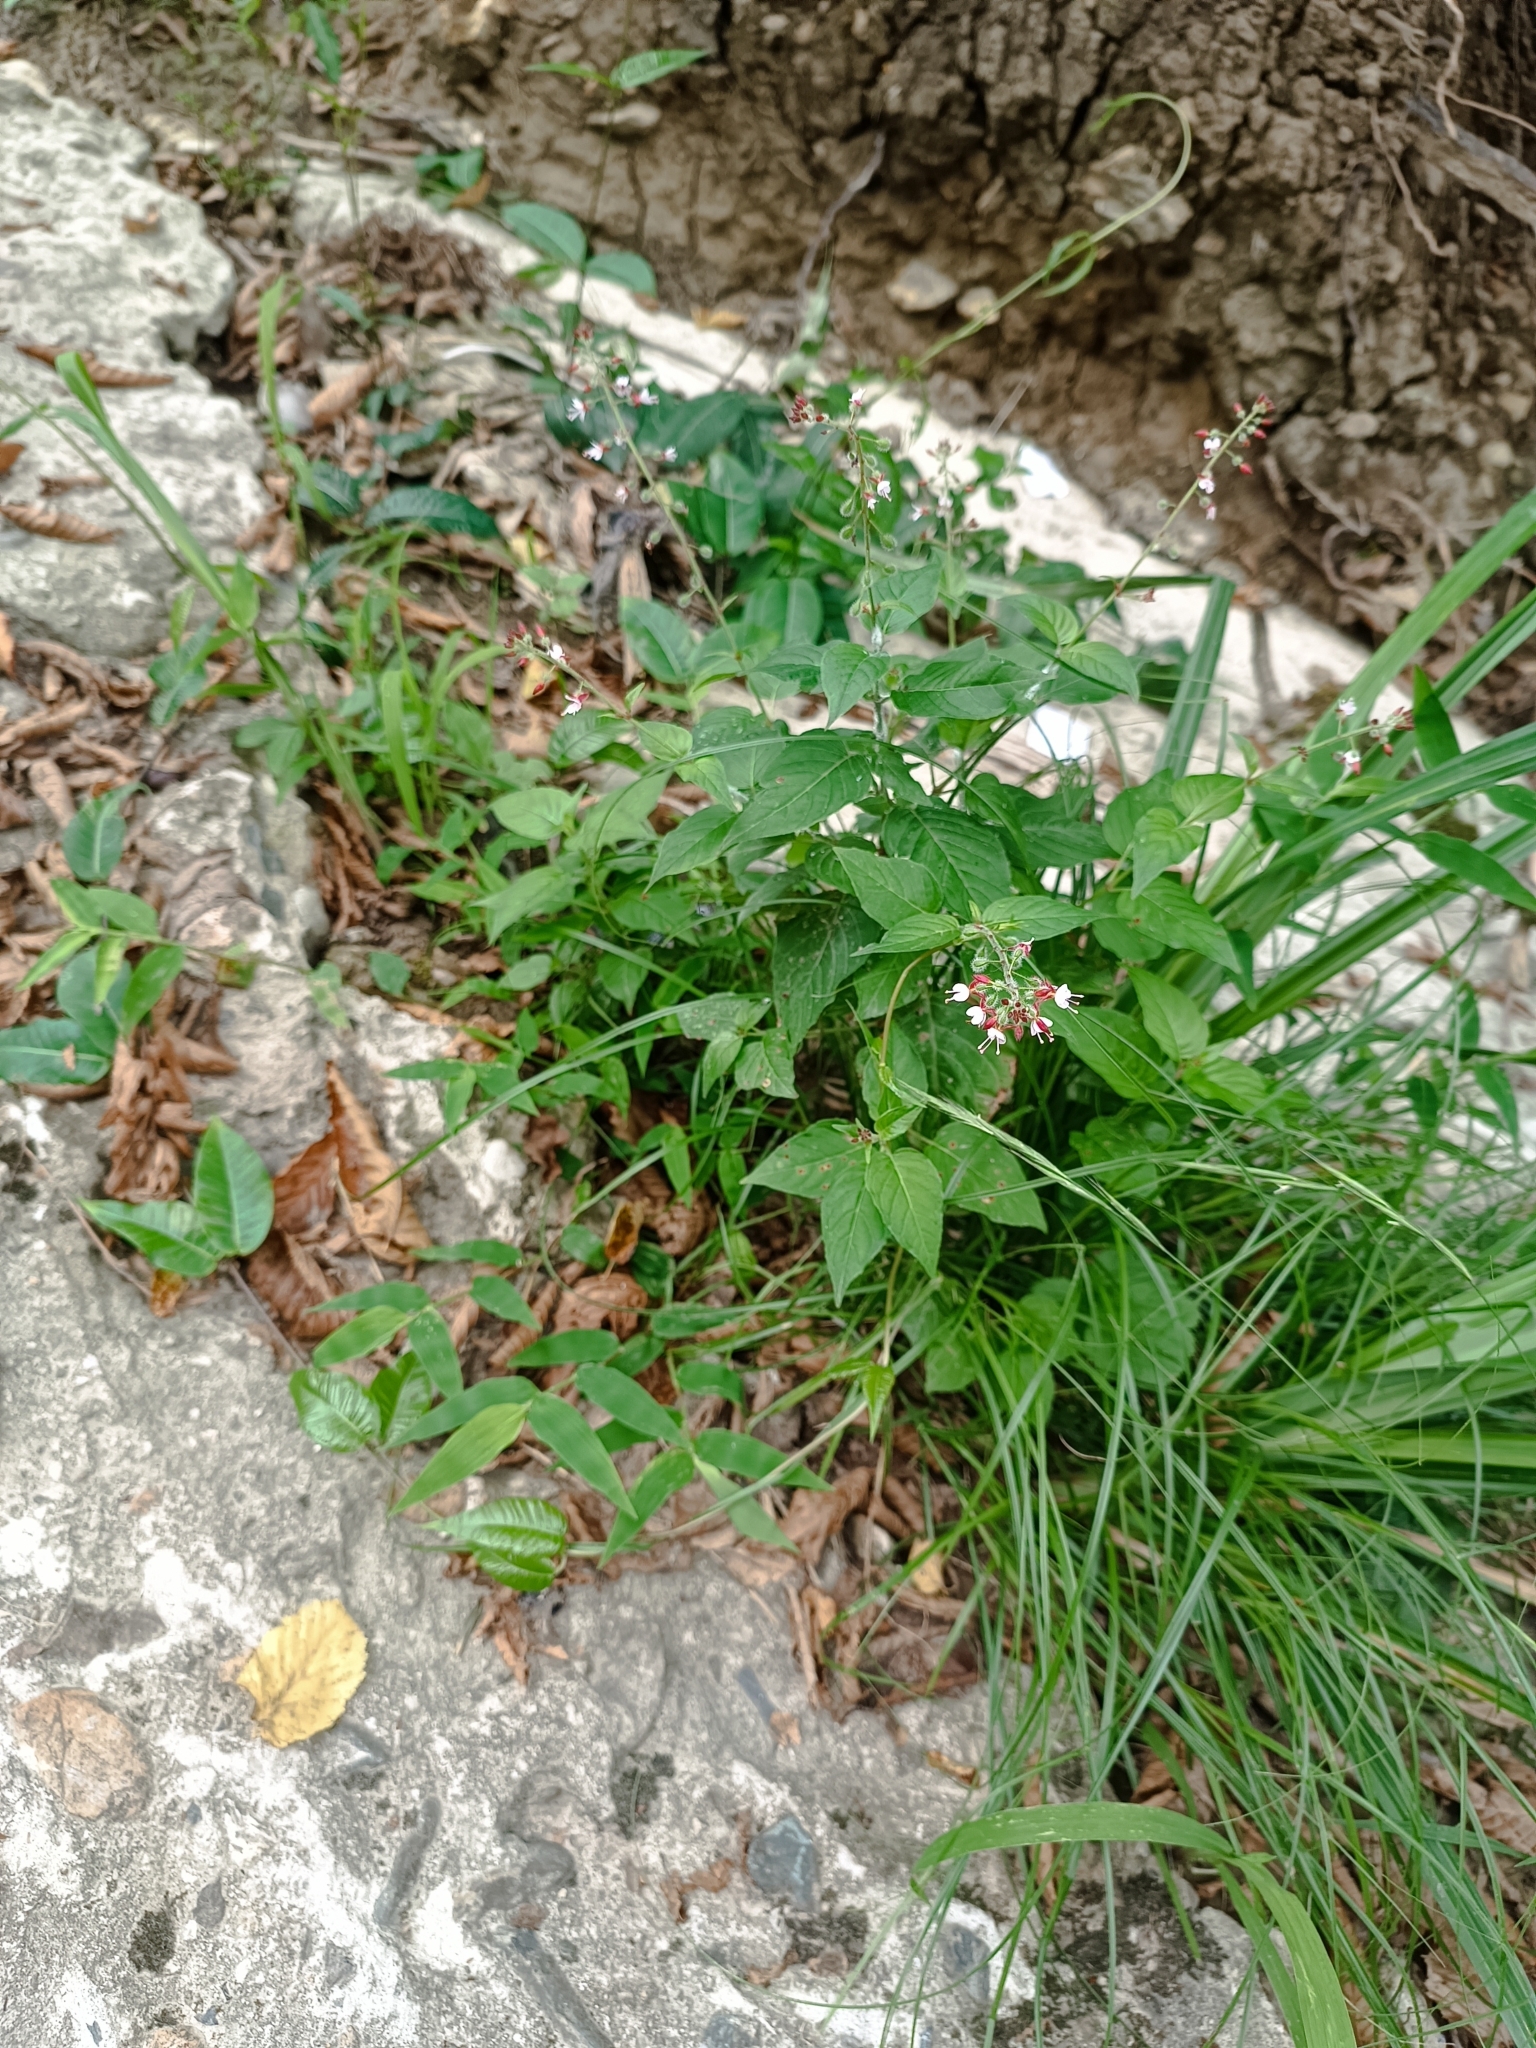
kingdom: Plantae
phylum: Tracheophyta
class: Magnoliopsida
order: Myrtales
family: Onagraceae
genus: Circaea
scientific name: Circaea lutetiana
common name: Enchanter's-nightshade
